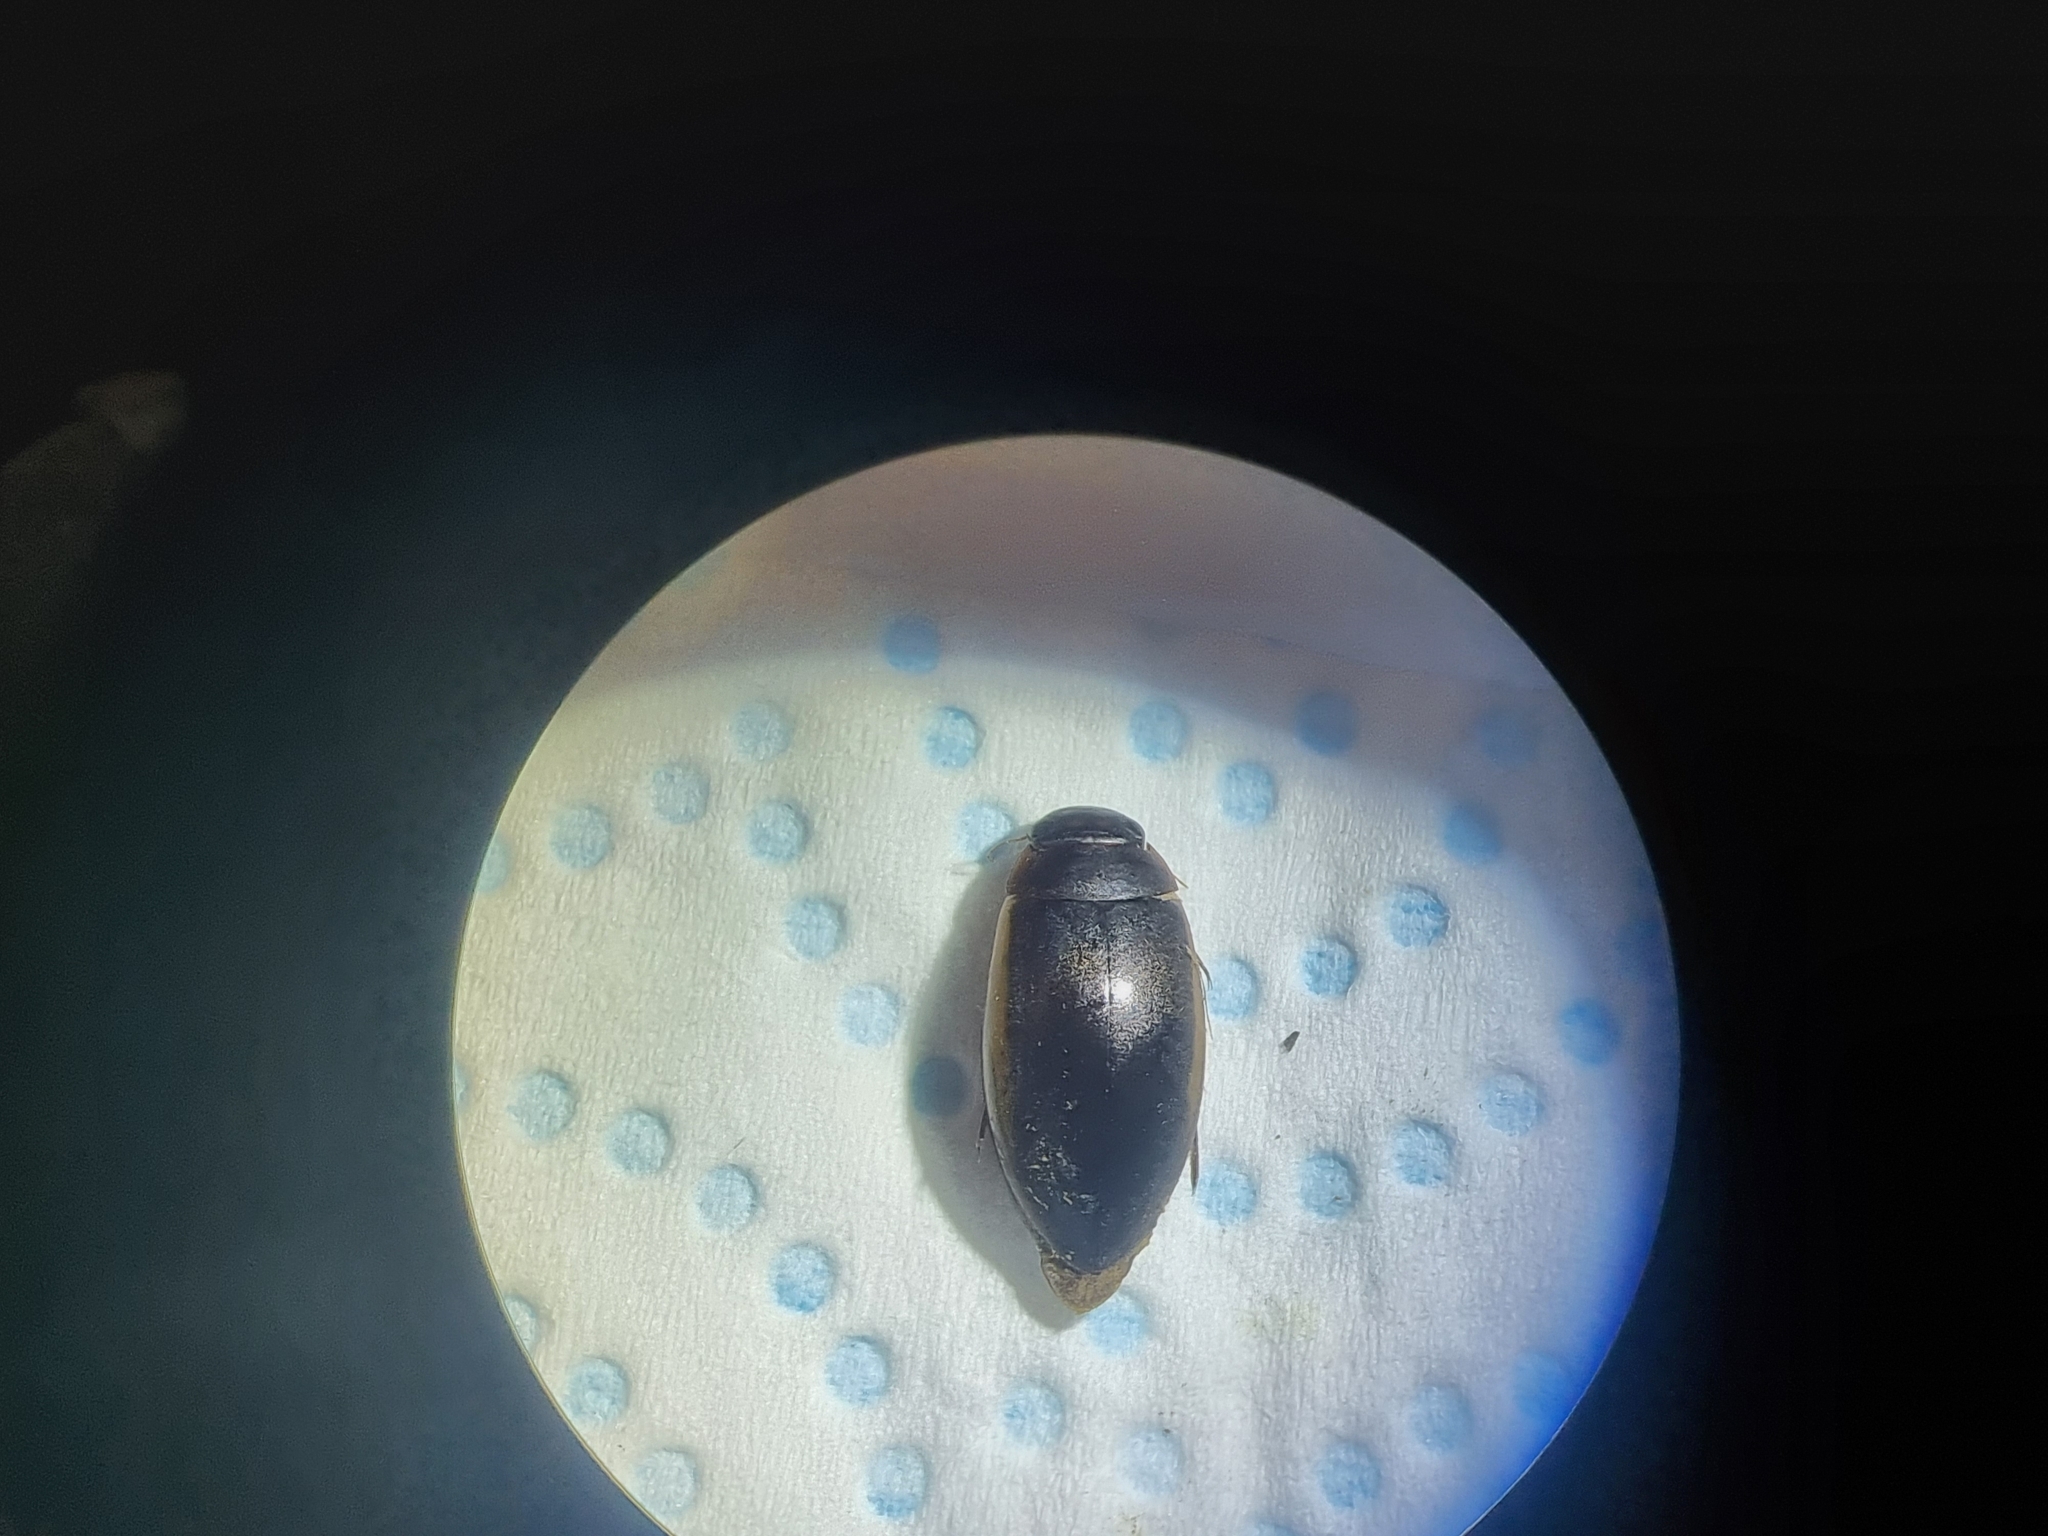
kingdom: Animalia
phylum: Arthropoda
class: Insecta
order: Coleoptera
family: Dytiscidae
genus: Ilybius
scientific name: Ilybius fuliginosus
